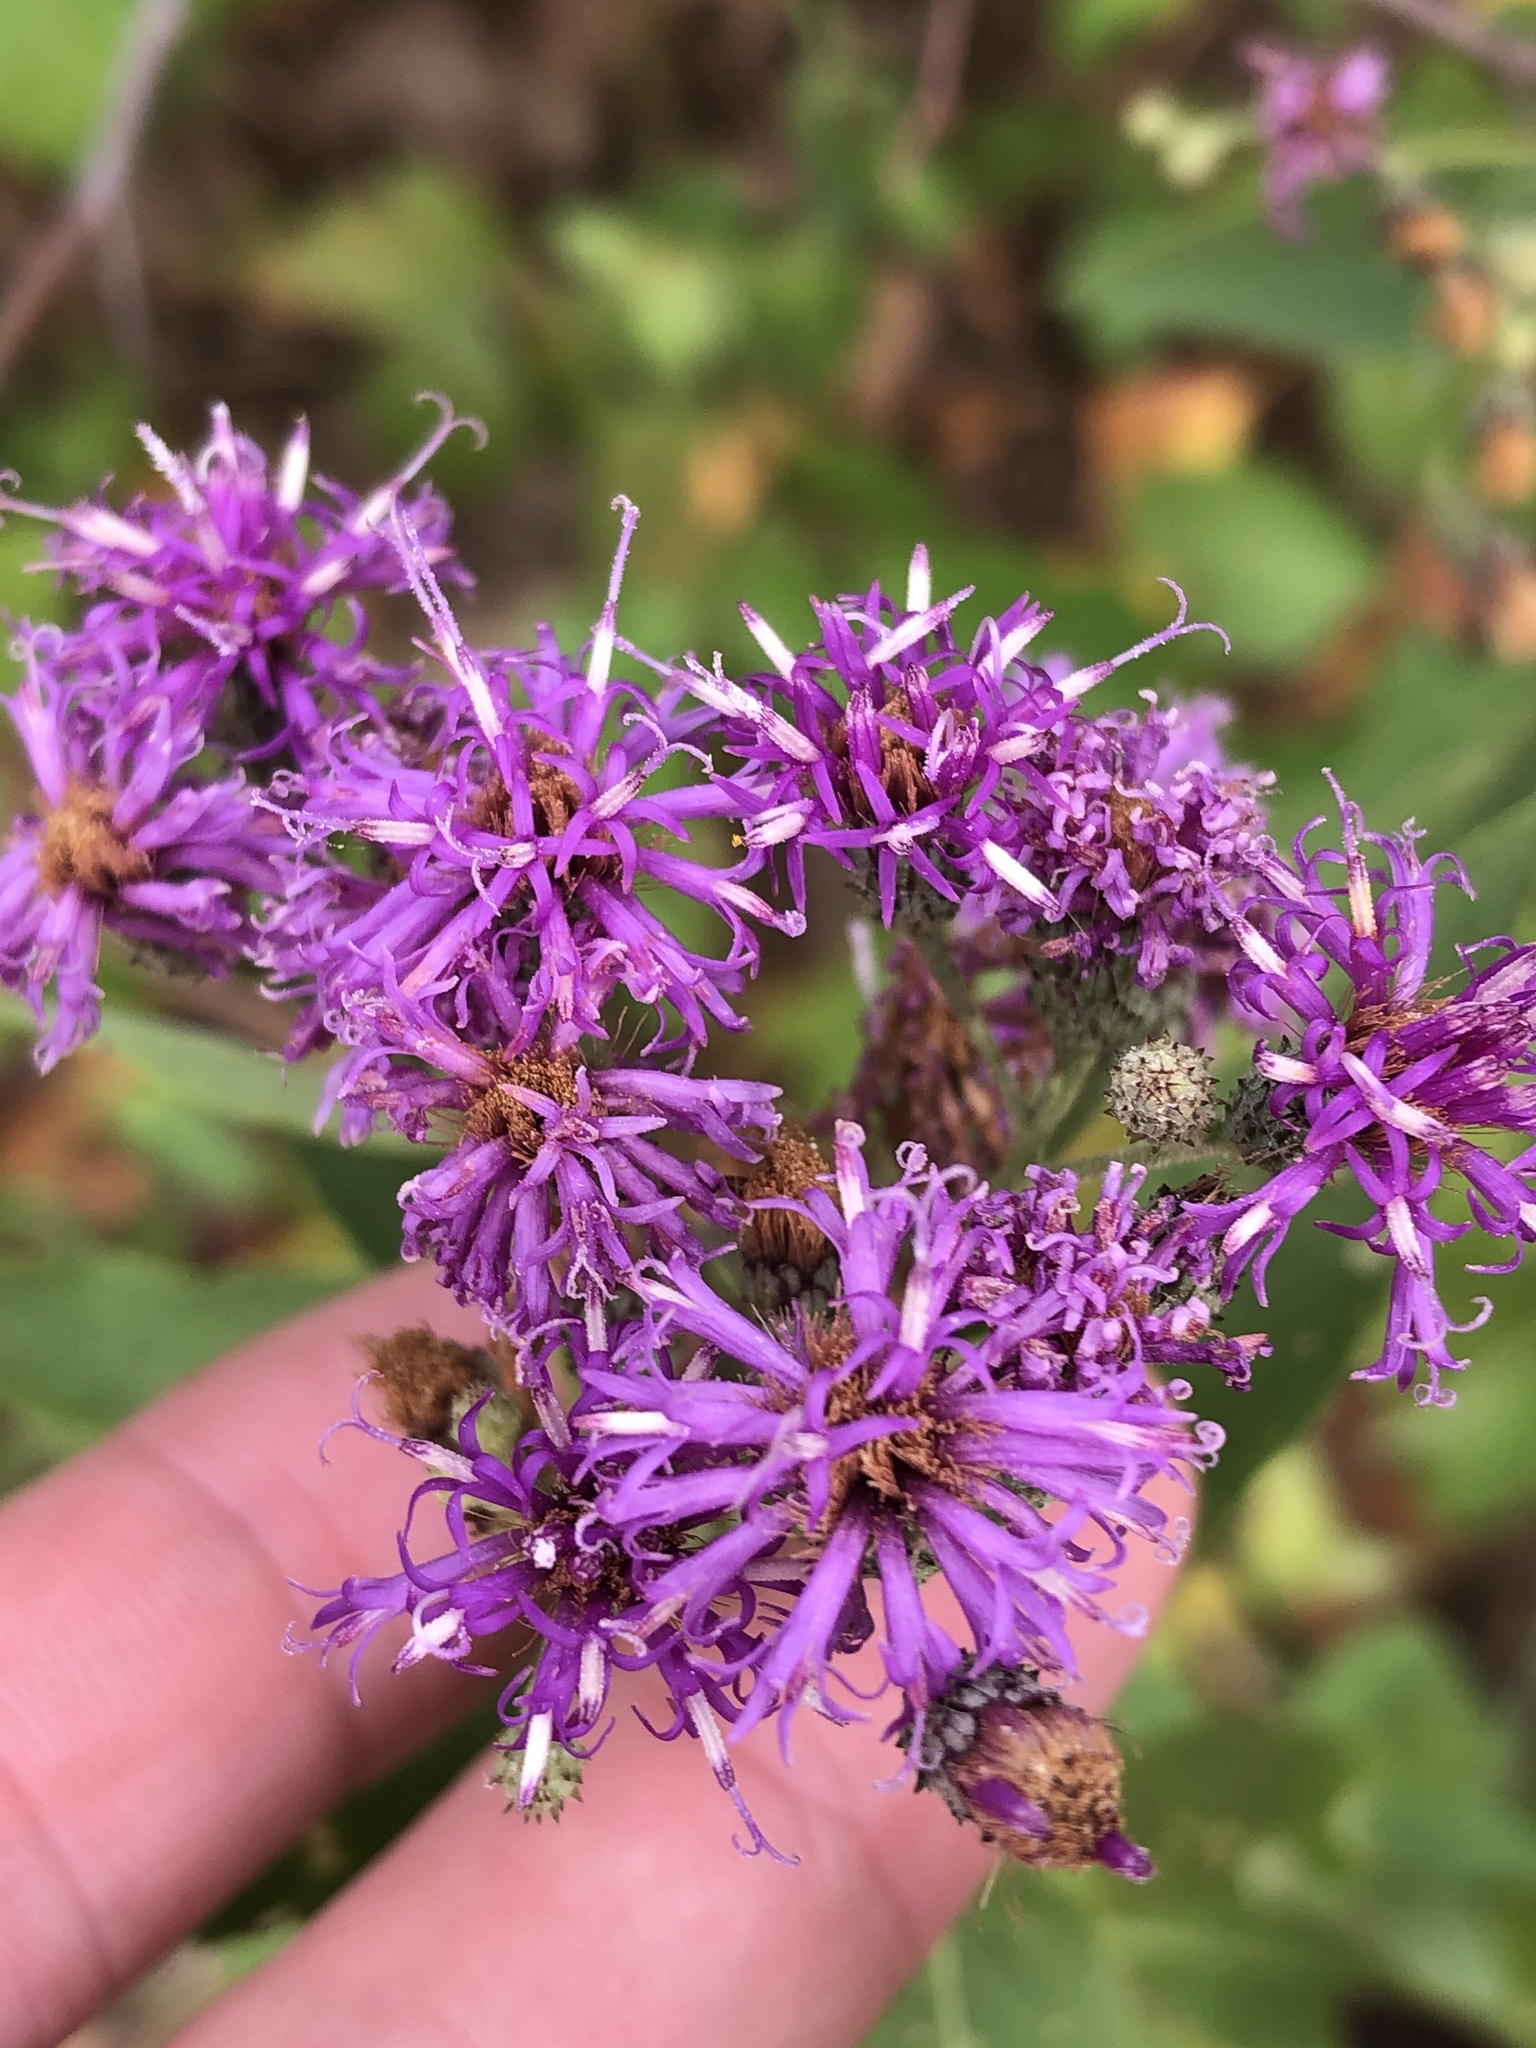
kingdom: Plantae
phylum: Tracheophyta
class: Magnoliopsida
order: Asterales
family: Asteraceae
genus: Vernonia
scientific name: Vernonia baldwinii
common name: Western ironweed
